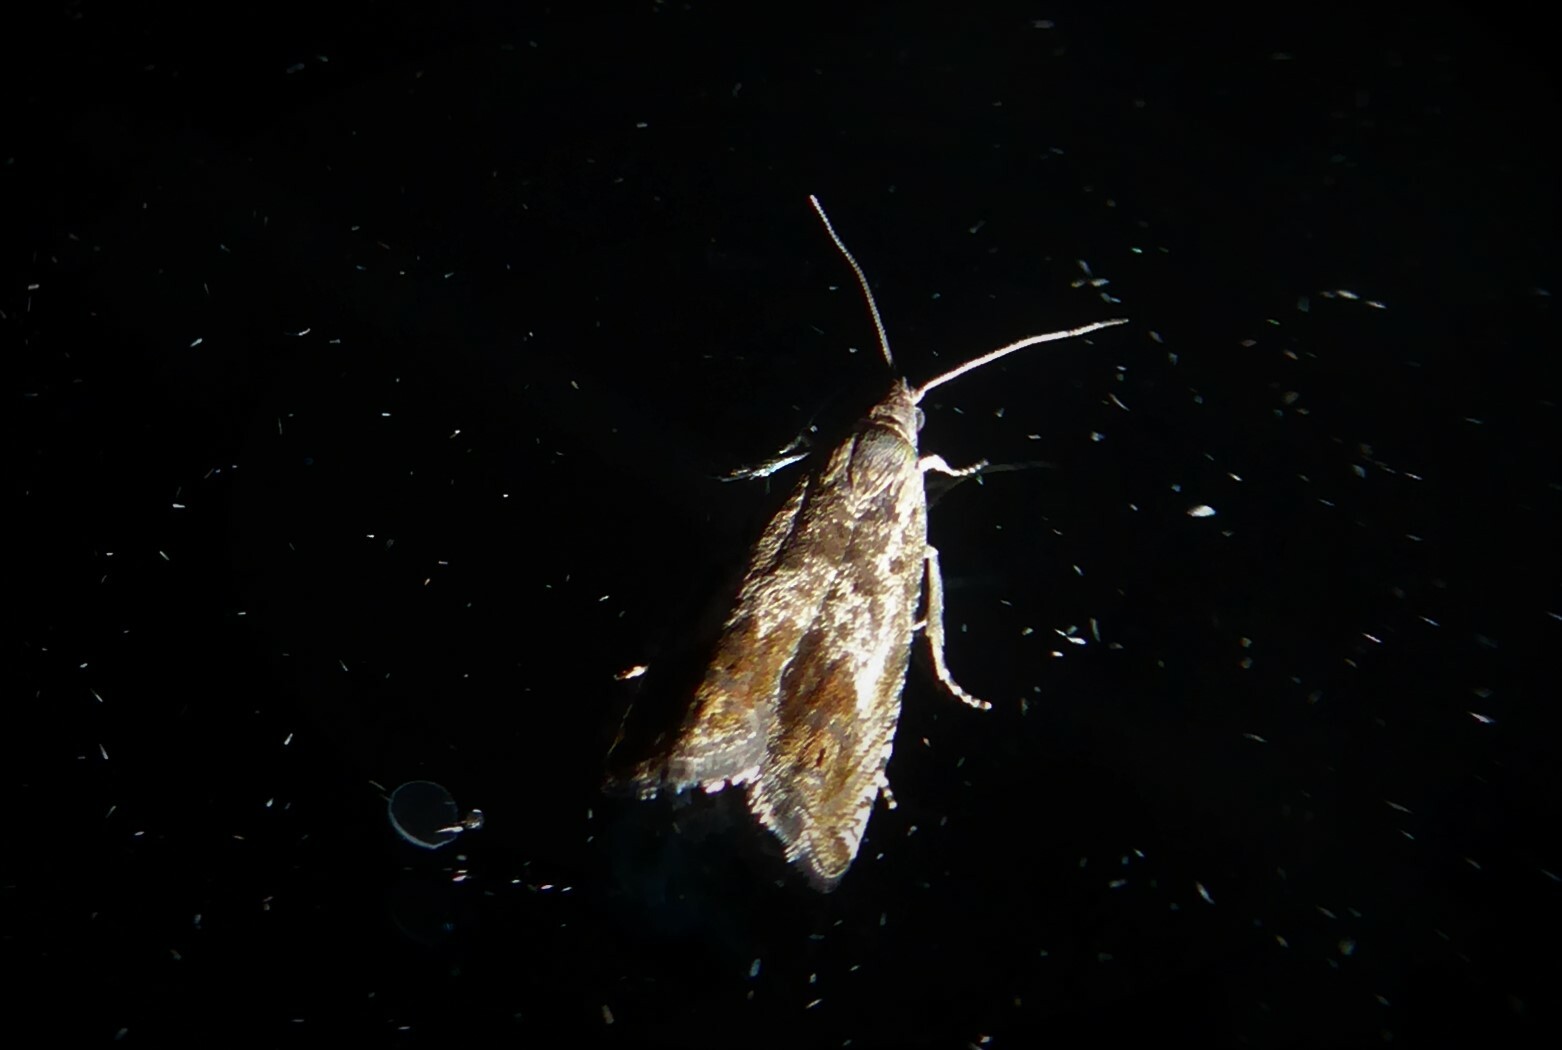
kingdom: Animalia
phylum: Arthropoda
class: Insecta
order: Lepidoptera
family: Tortricidae
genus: Cydia
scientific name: Cydia succedana
